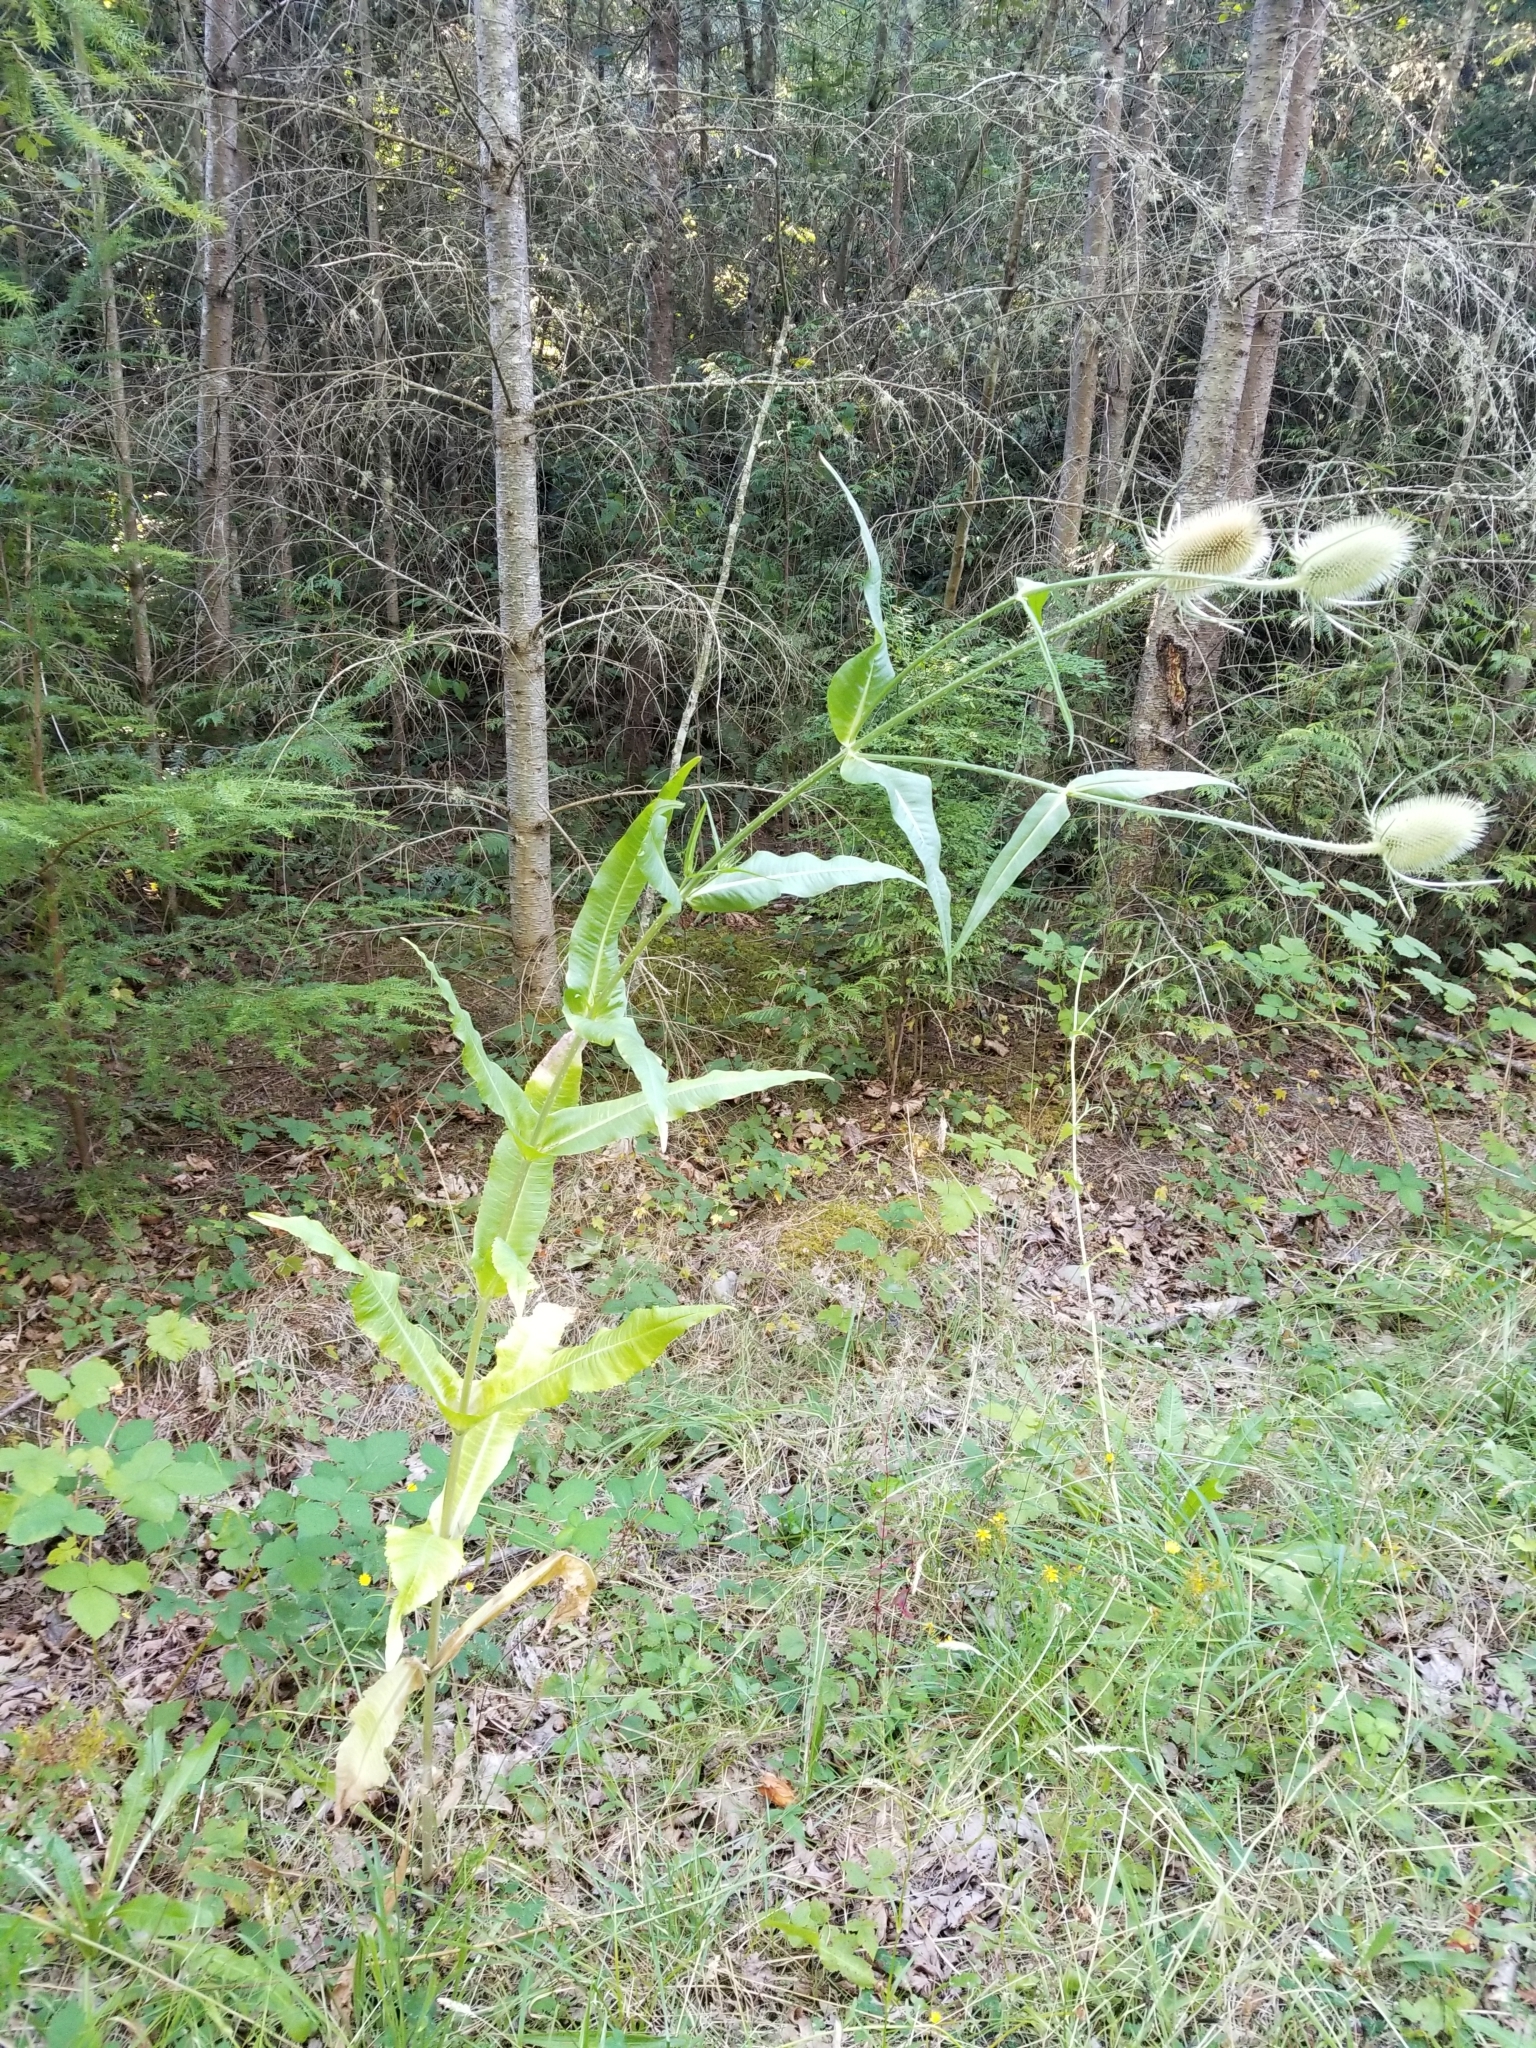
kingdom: Plantae
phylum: Tracheophyta
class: Magnoliopsida
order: Dipsacales
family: Caprifoliaceae
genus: Dipsacus
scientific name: Dipsacus fullonum
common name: Teasel
